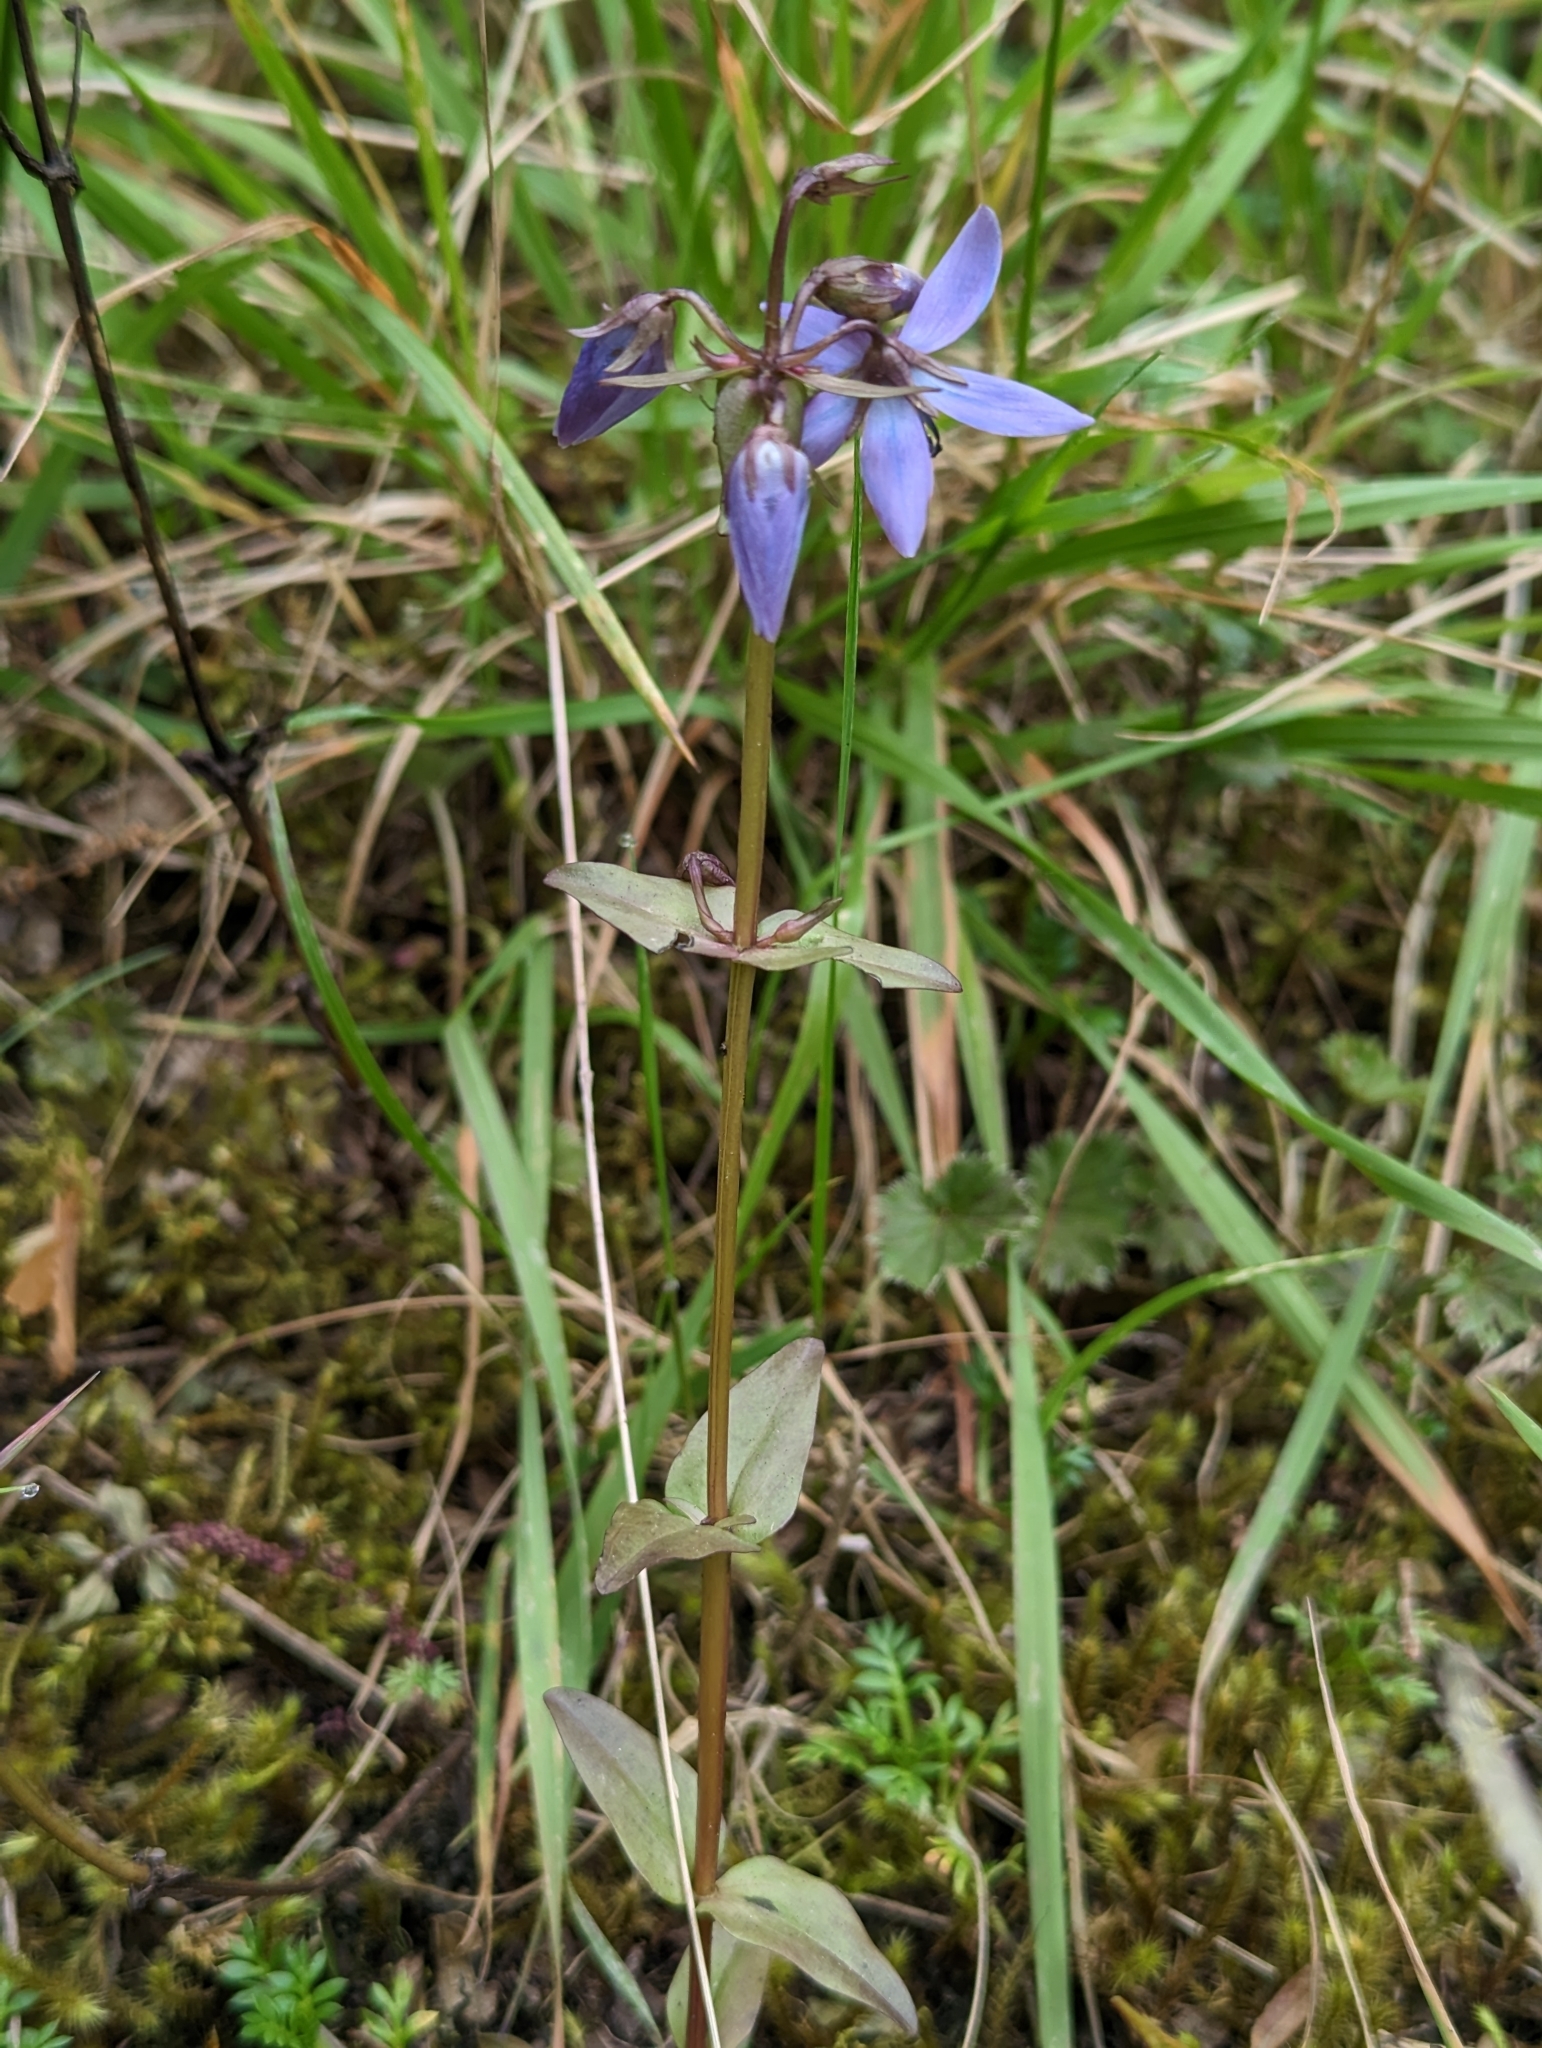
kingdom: Plantae
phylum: Tracheophyta
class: Magnoliopsida
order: Gentianales
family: Gentianaceae
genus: Gentianella
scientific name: Gentianella rapunculoides
